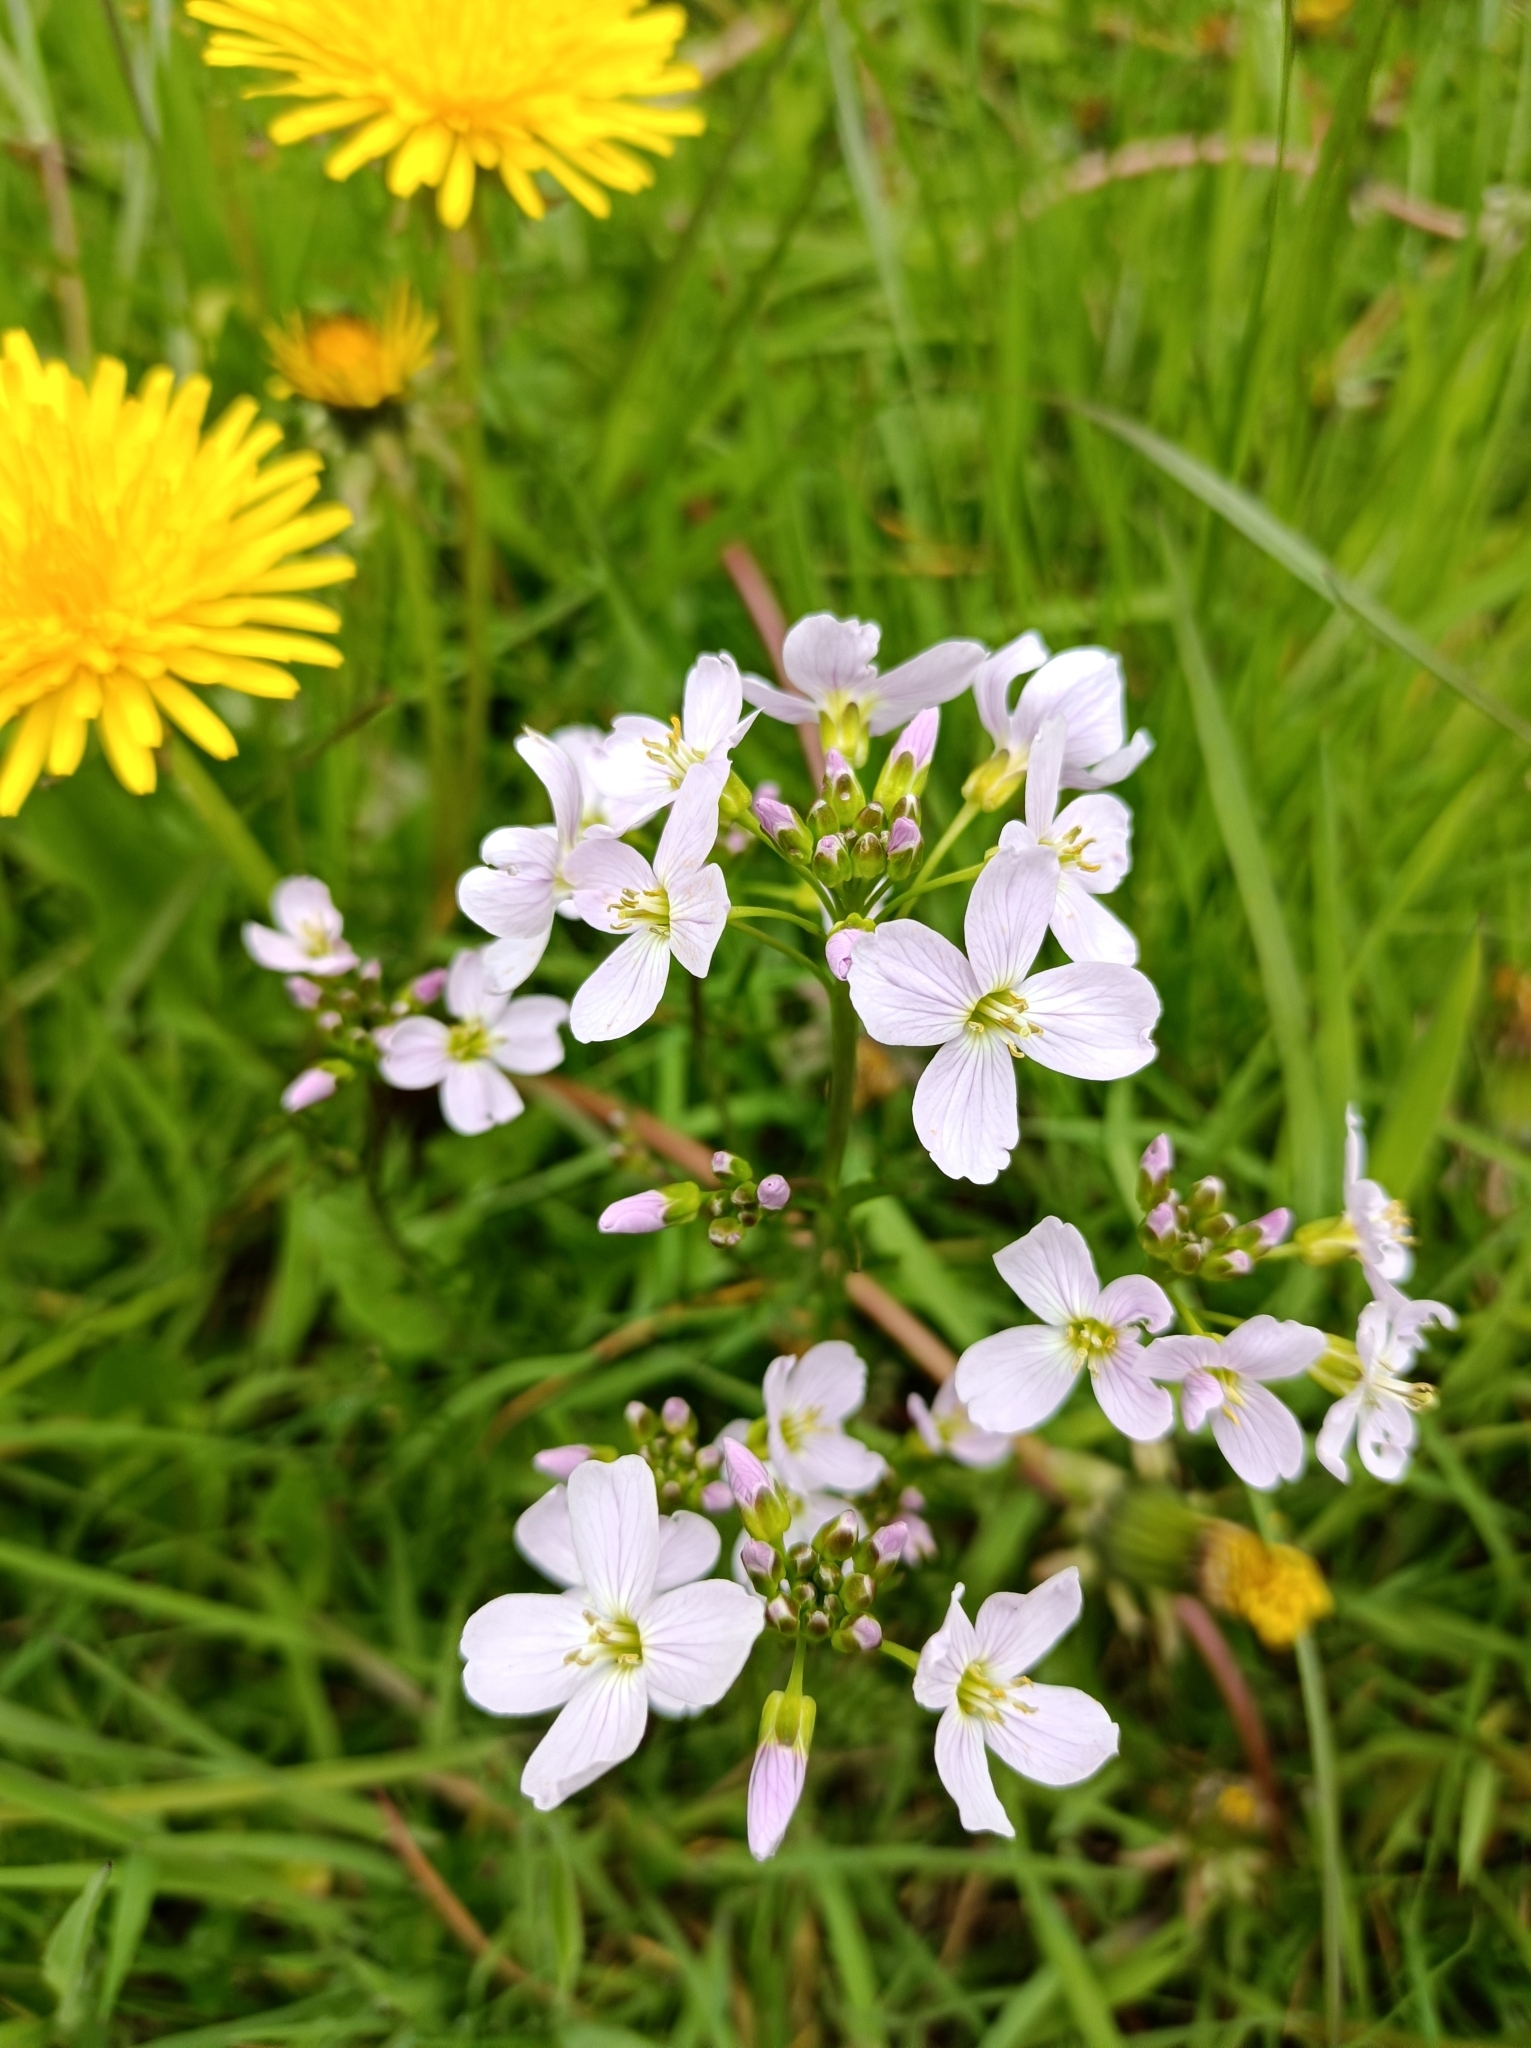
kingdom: Plantae
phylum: Tracheophyta
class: Magnoliopsida
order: Brassicales
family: Brassicaceae
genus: Cardamine
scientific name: Cardamine pratensis
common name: Cuckoo flower
